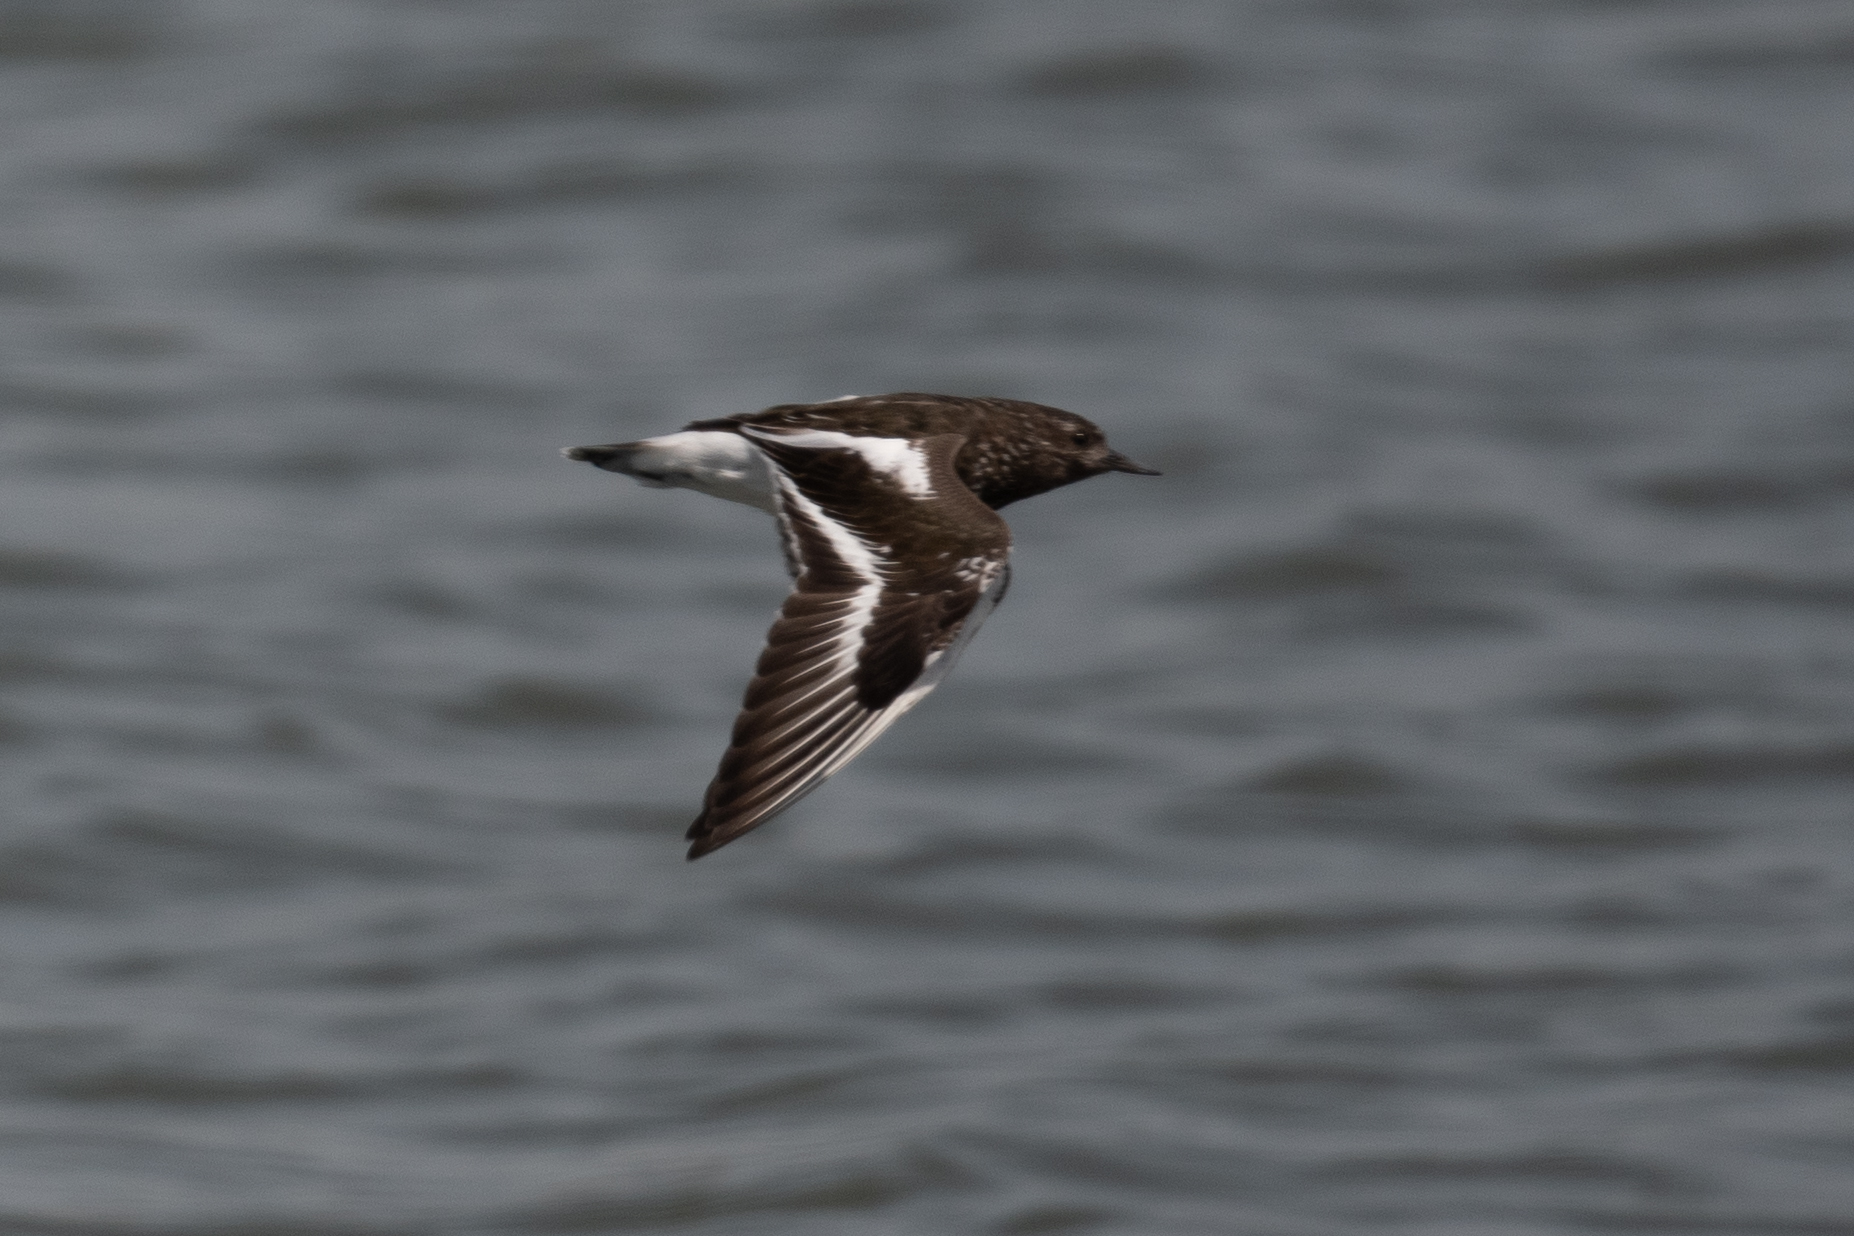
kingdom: Animalia
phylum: Chordata
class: Aves
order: Charadriiformes
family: Scolopacidae
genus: Arenaria
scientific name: Arenaria melanocephala
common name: Black turnstone
